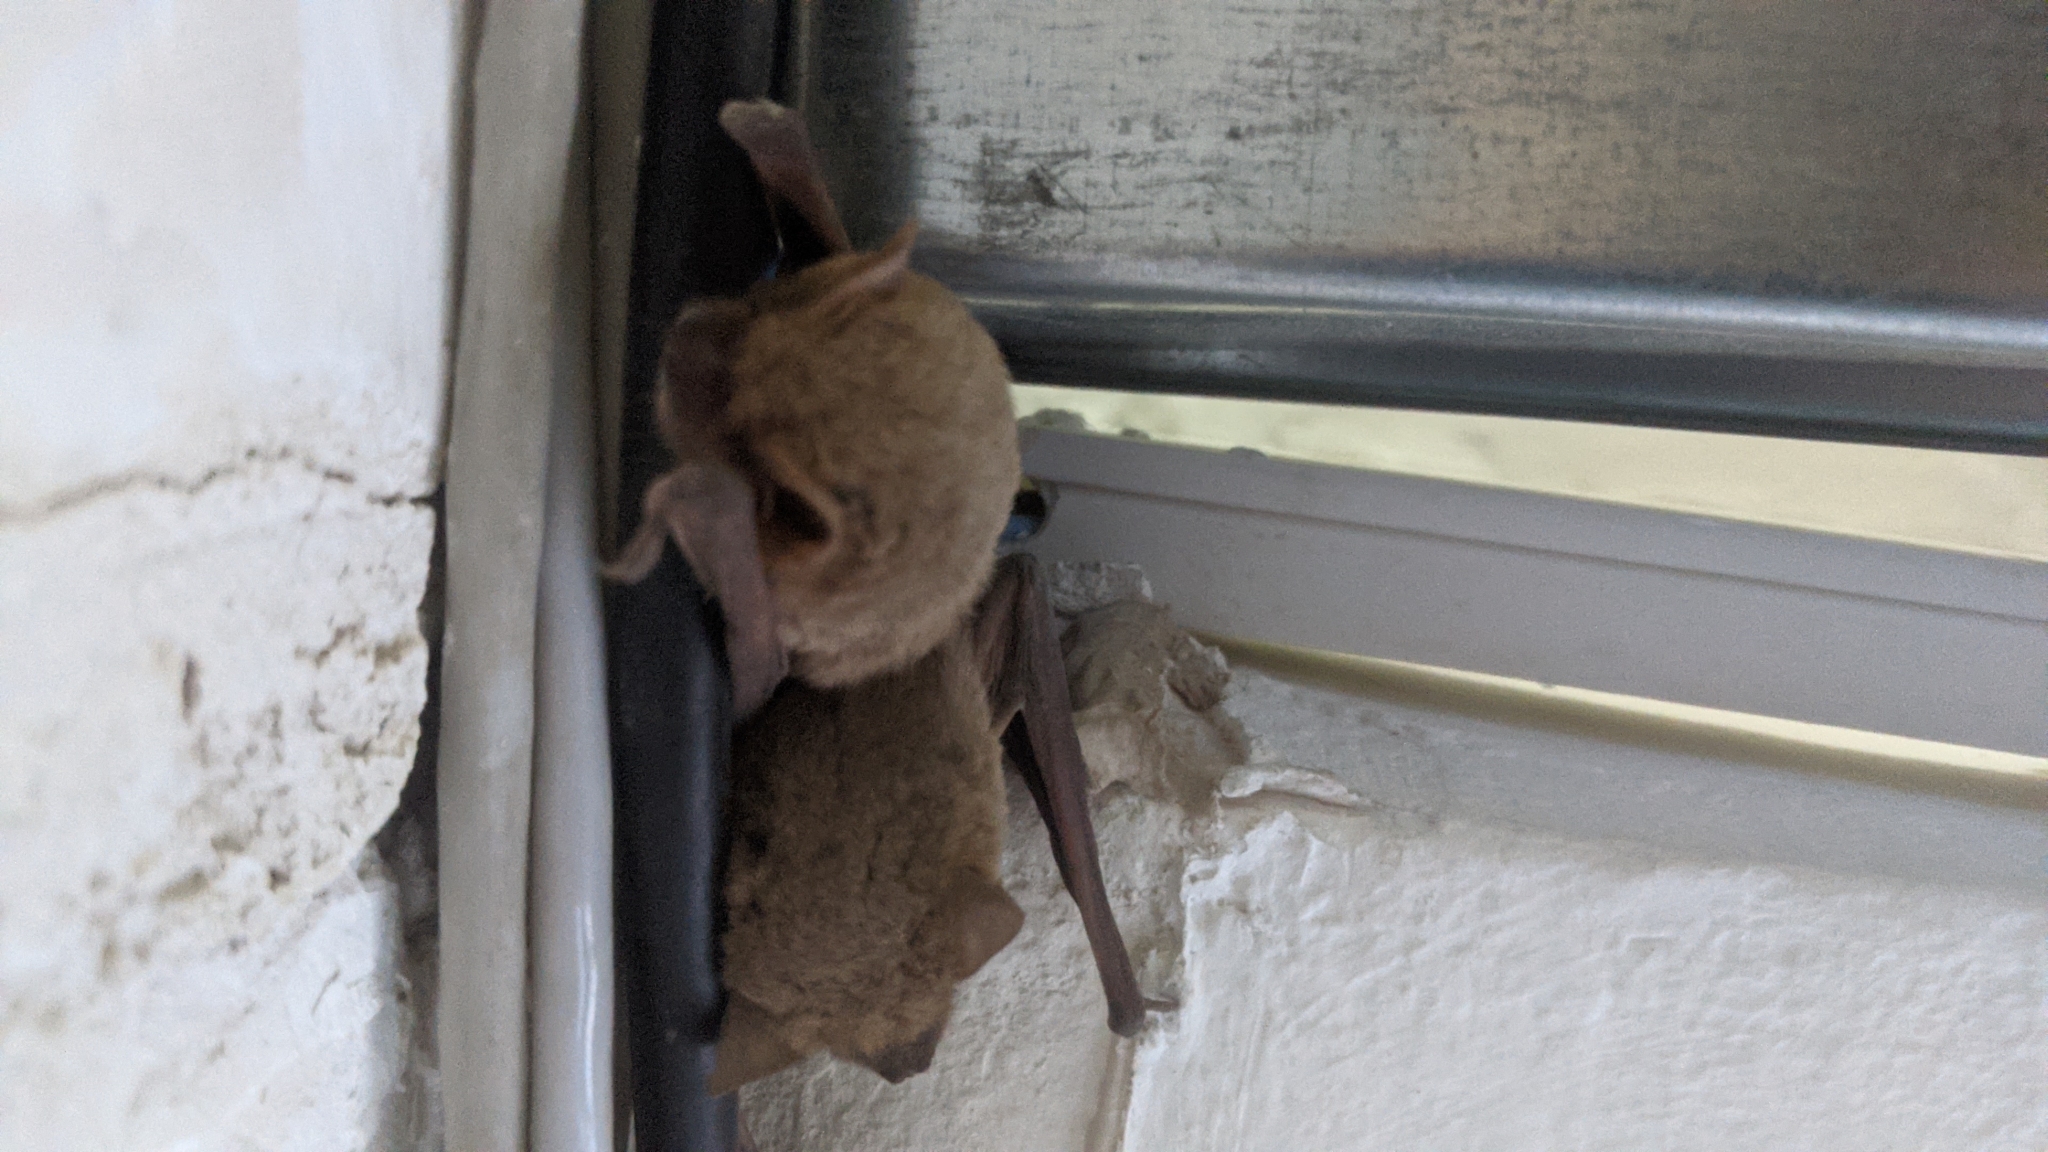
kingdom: Animalia
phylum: Chordata
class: Mammalia
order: Chiroptera
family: Vespertilionidae
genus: Pipistrellus
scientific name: Pipistrellus kuhlii
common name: Kuhl's pipistrelle
